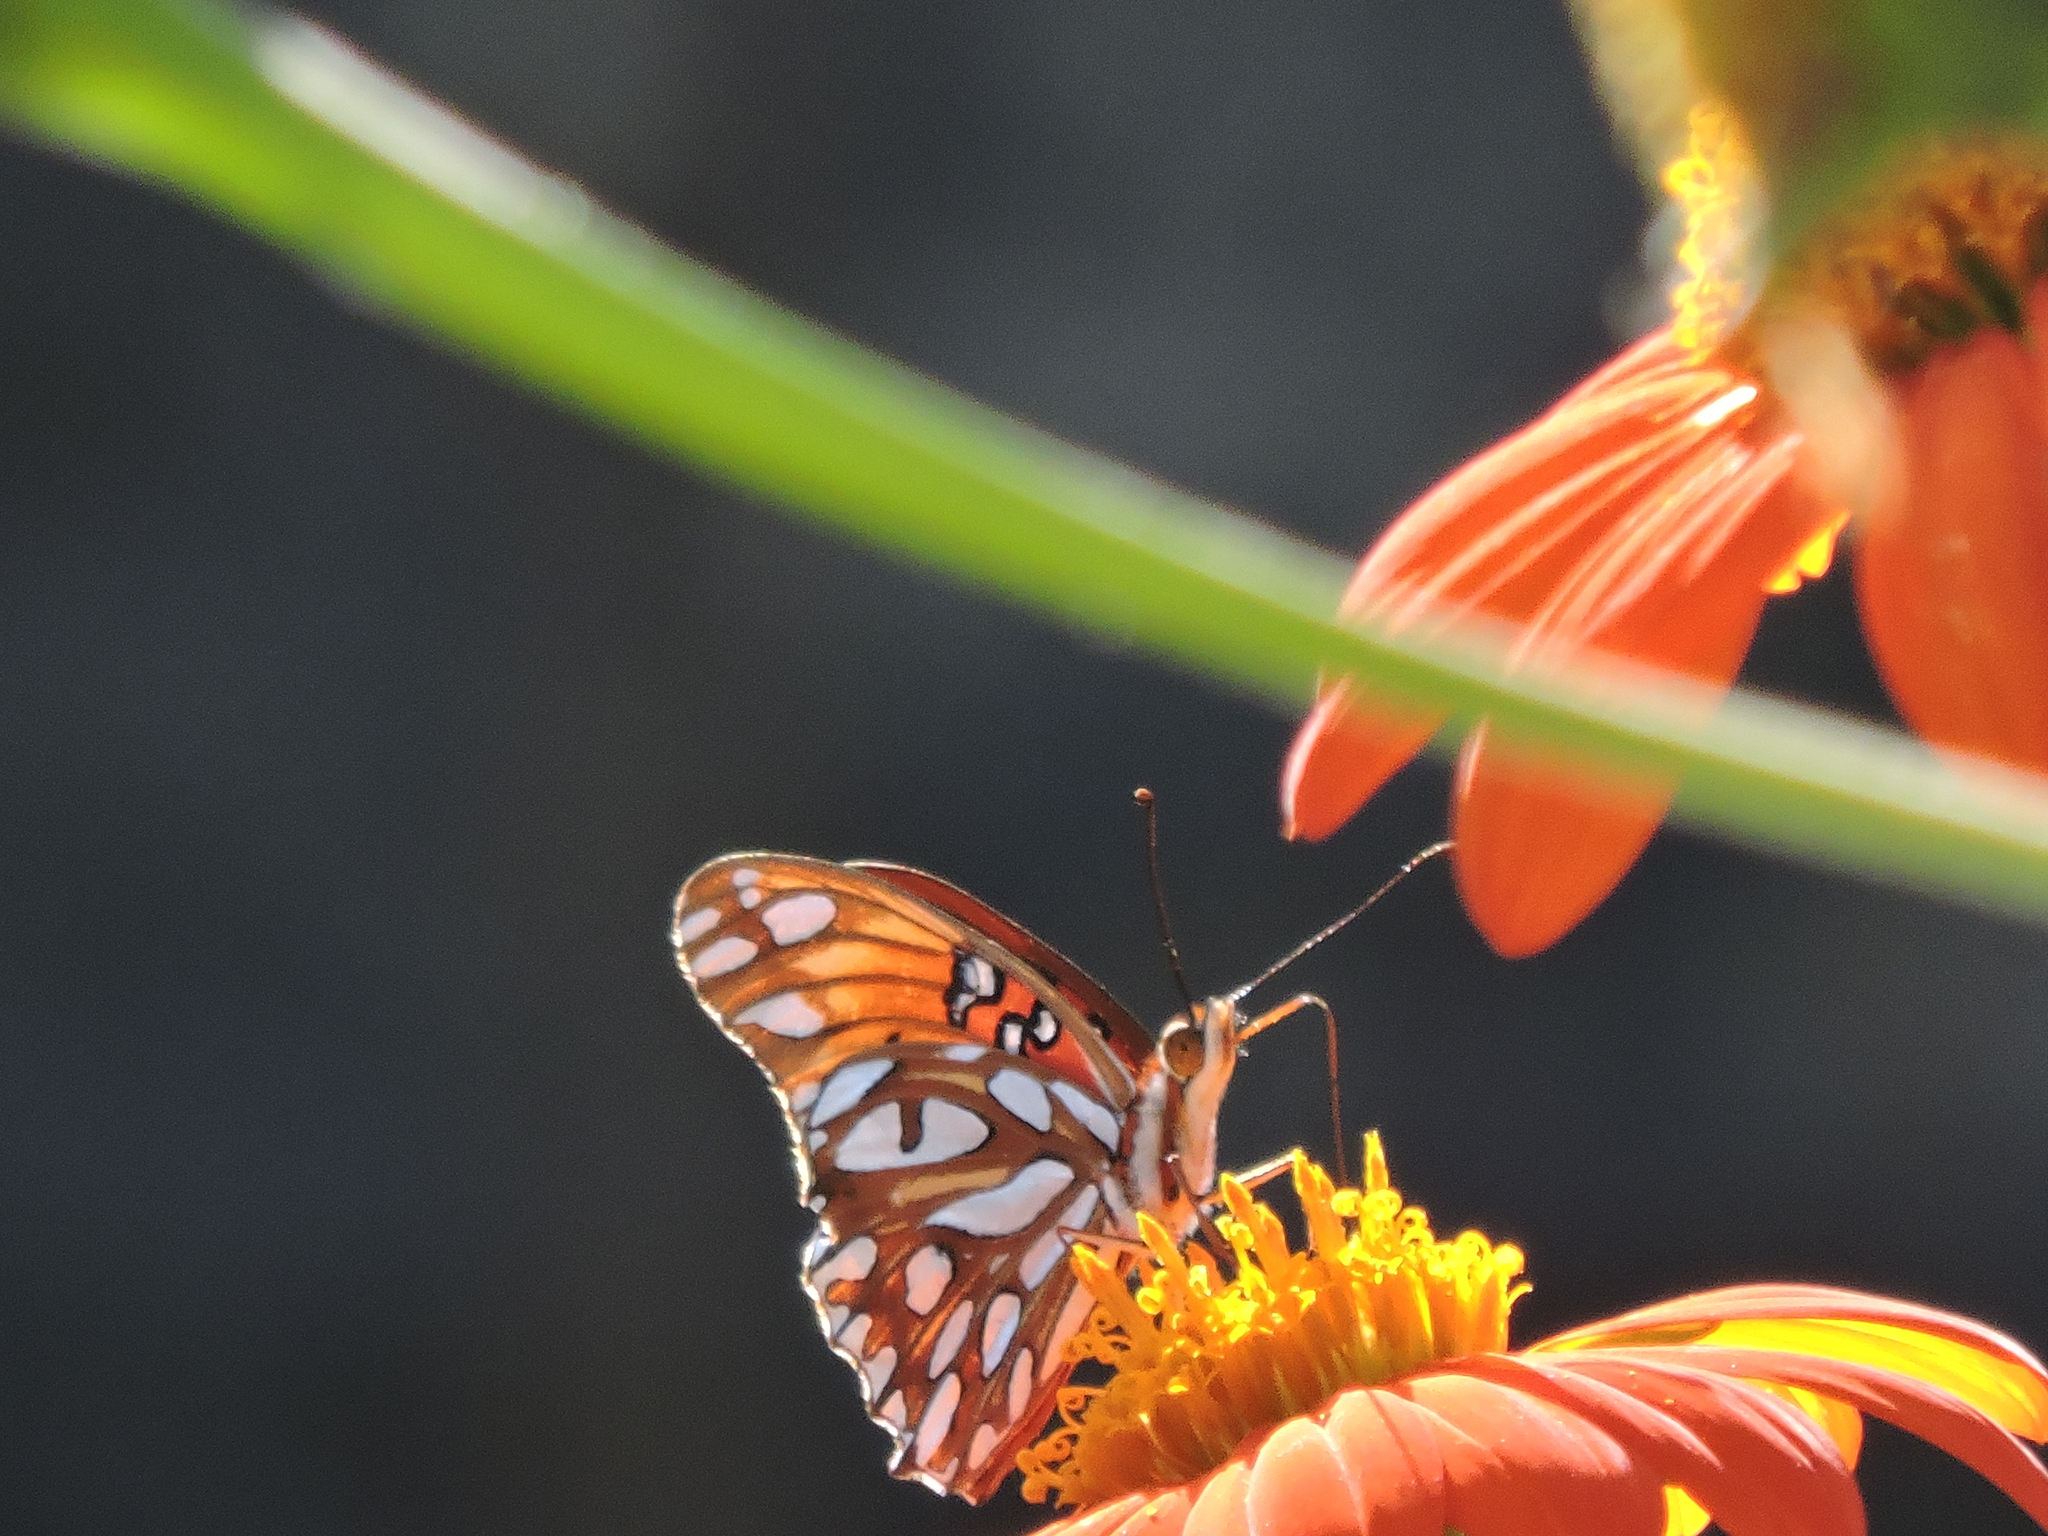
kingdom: Animalia
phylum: Arthropoda
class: Insecta
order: Lepidoptera
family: Nymphalidae
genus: Dione
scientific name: Dione vanillae
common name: Gulf fritillary
